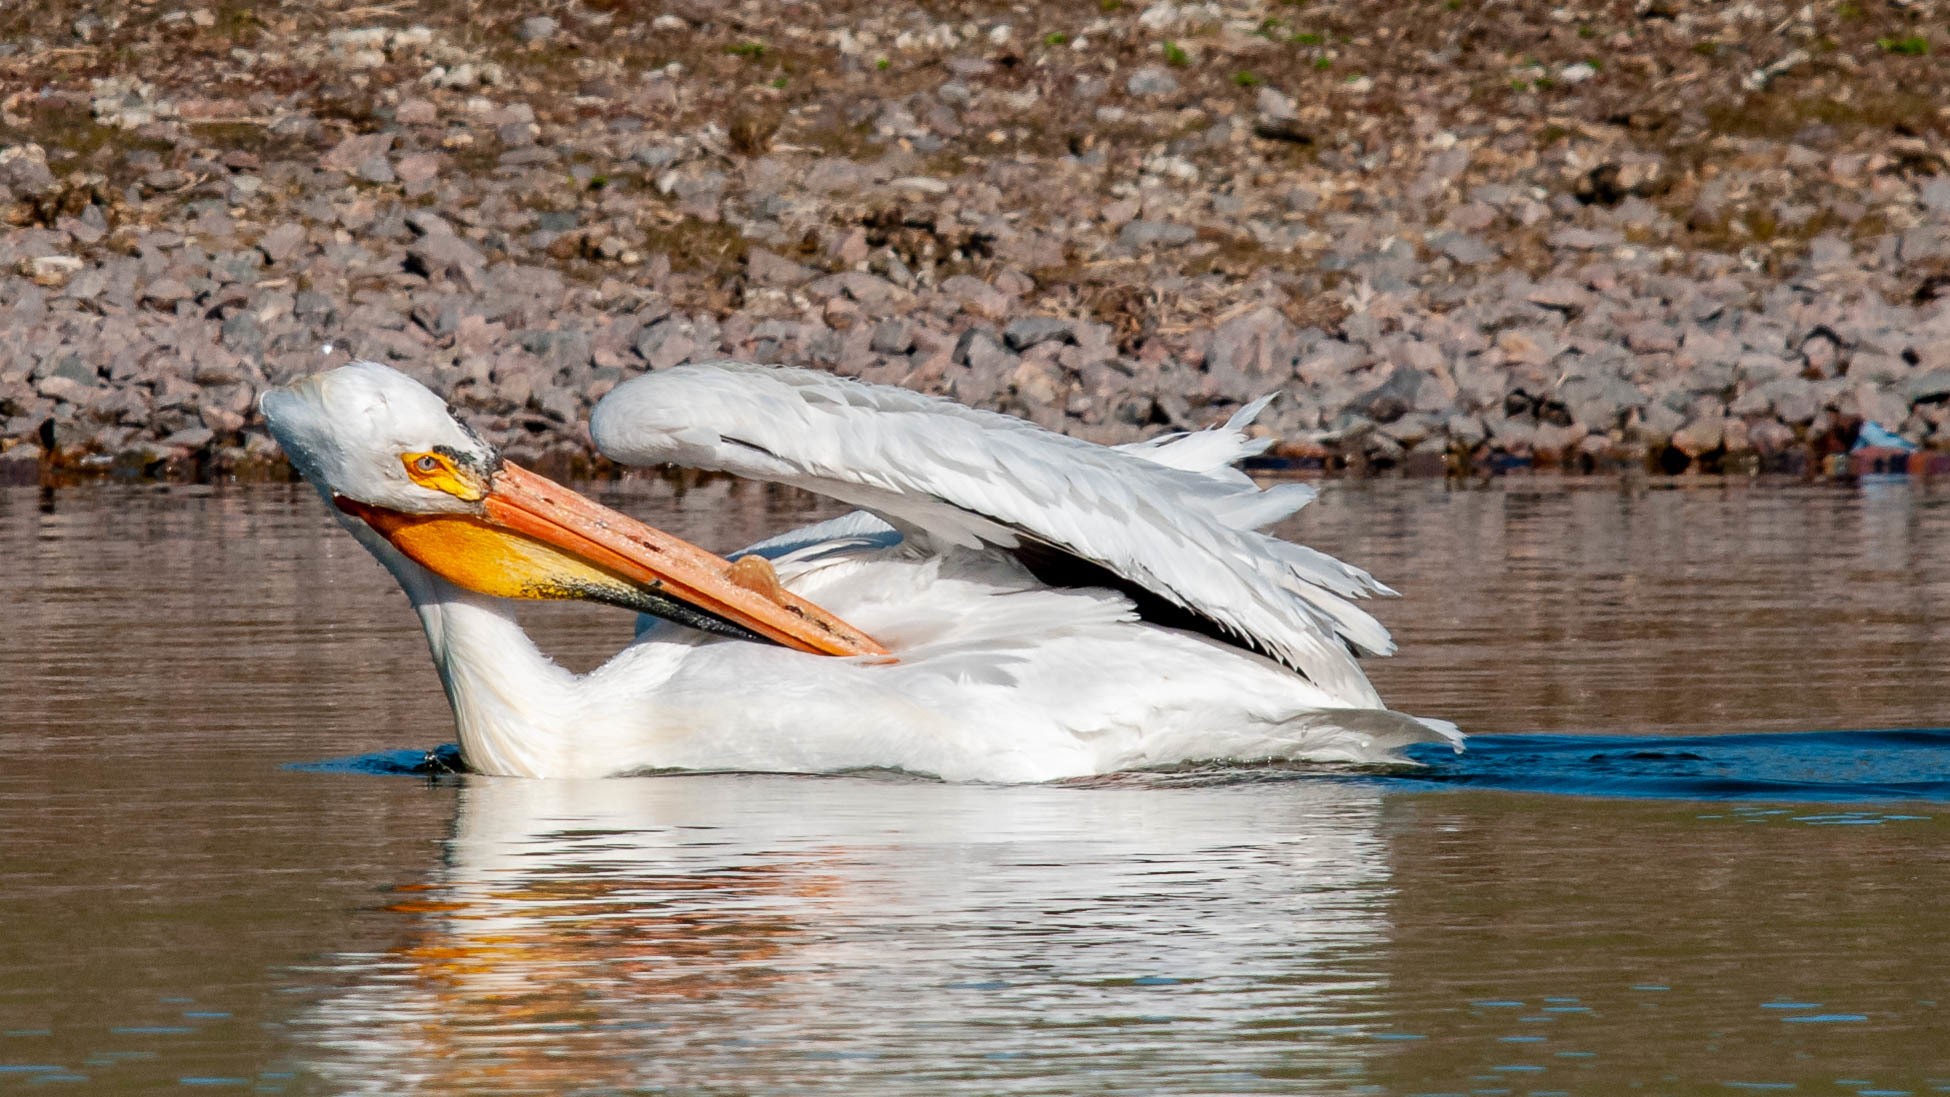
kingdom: Animalia
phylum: Chordata
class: Aves
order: Pelecaniformes
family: Pelecanidae
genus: Pelecanus
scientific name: Pelecanus erythrorhynchos
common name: American white pelican
